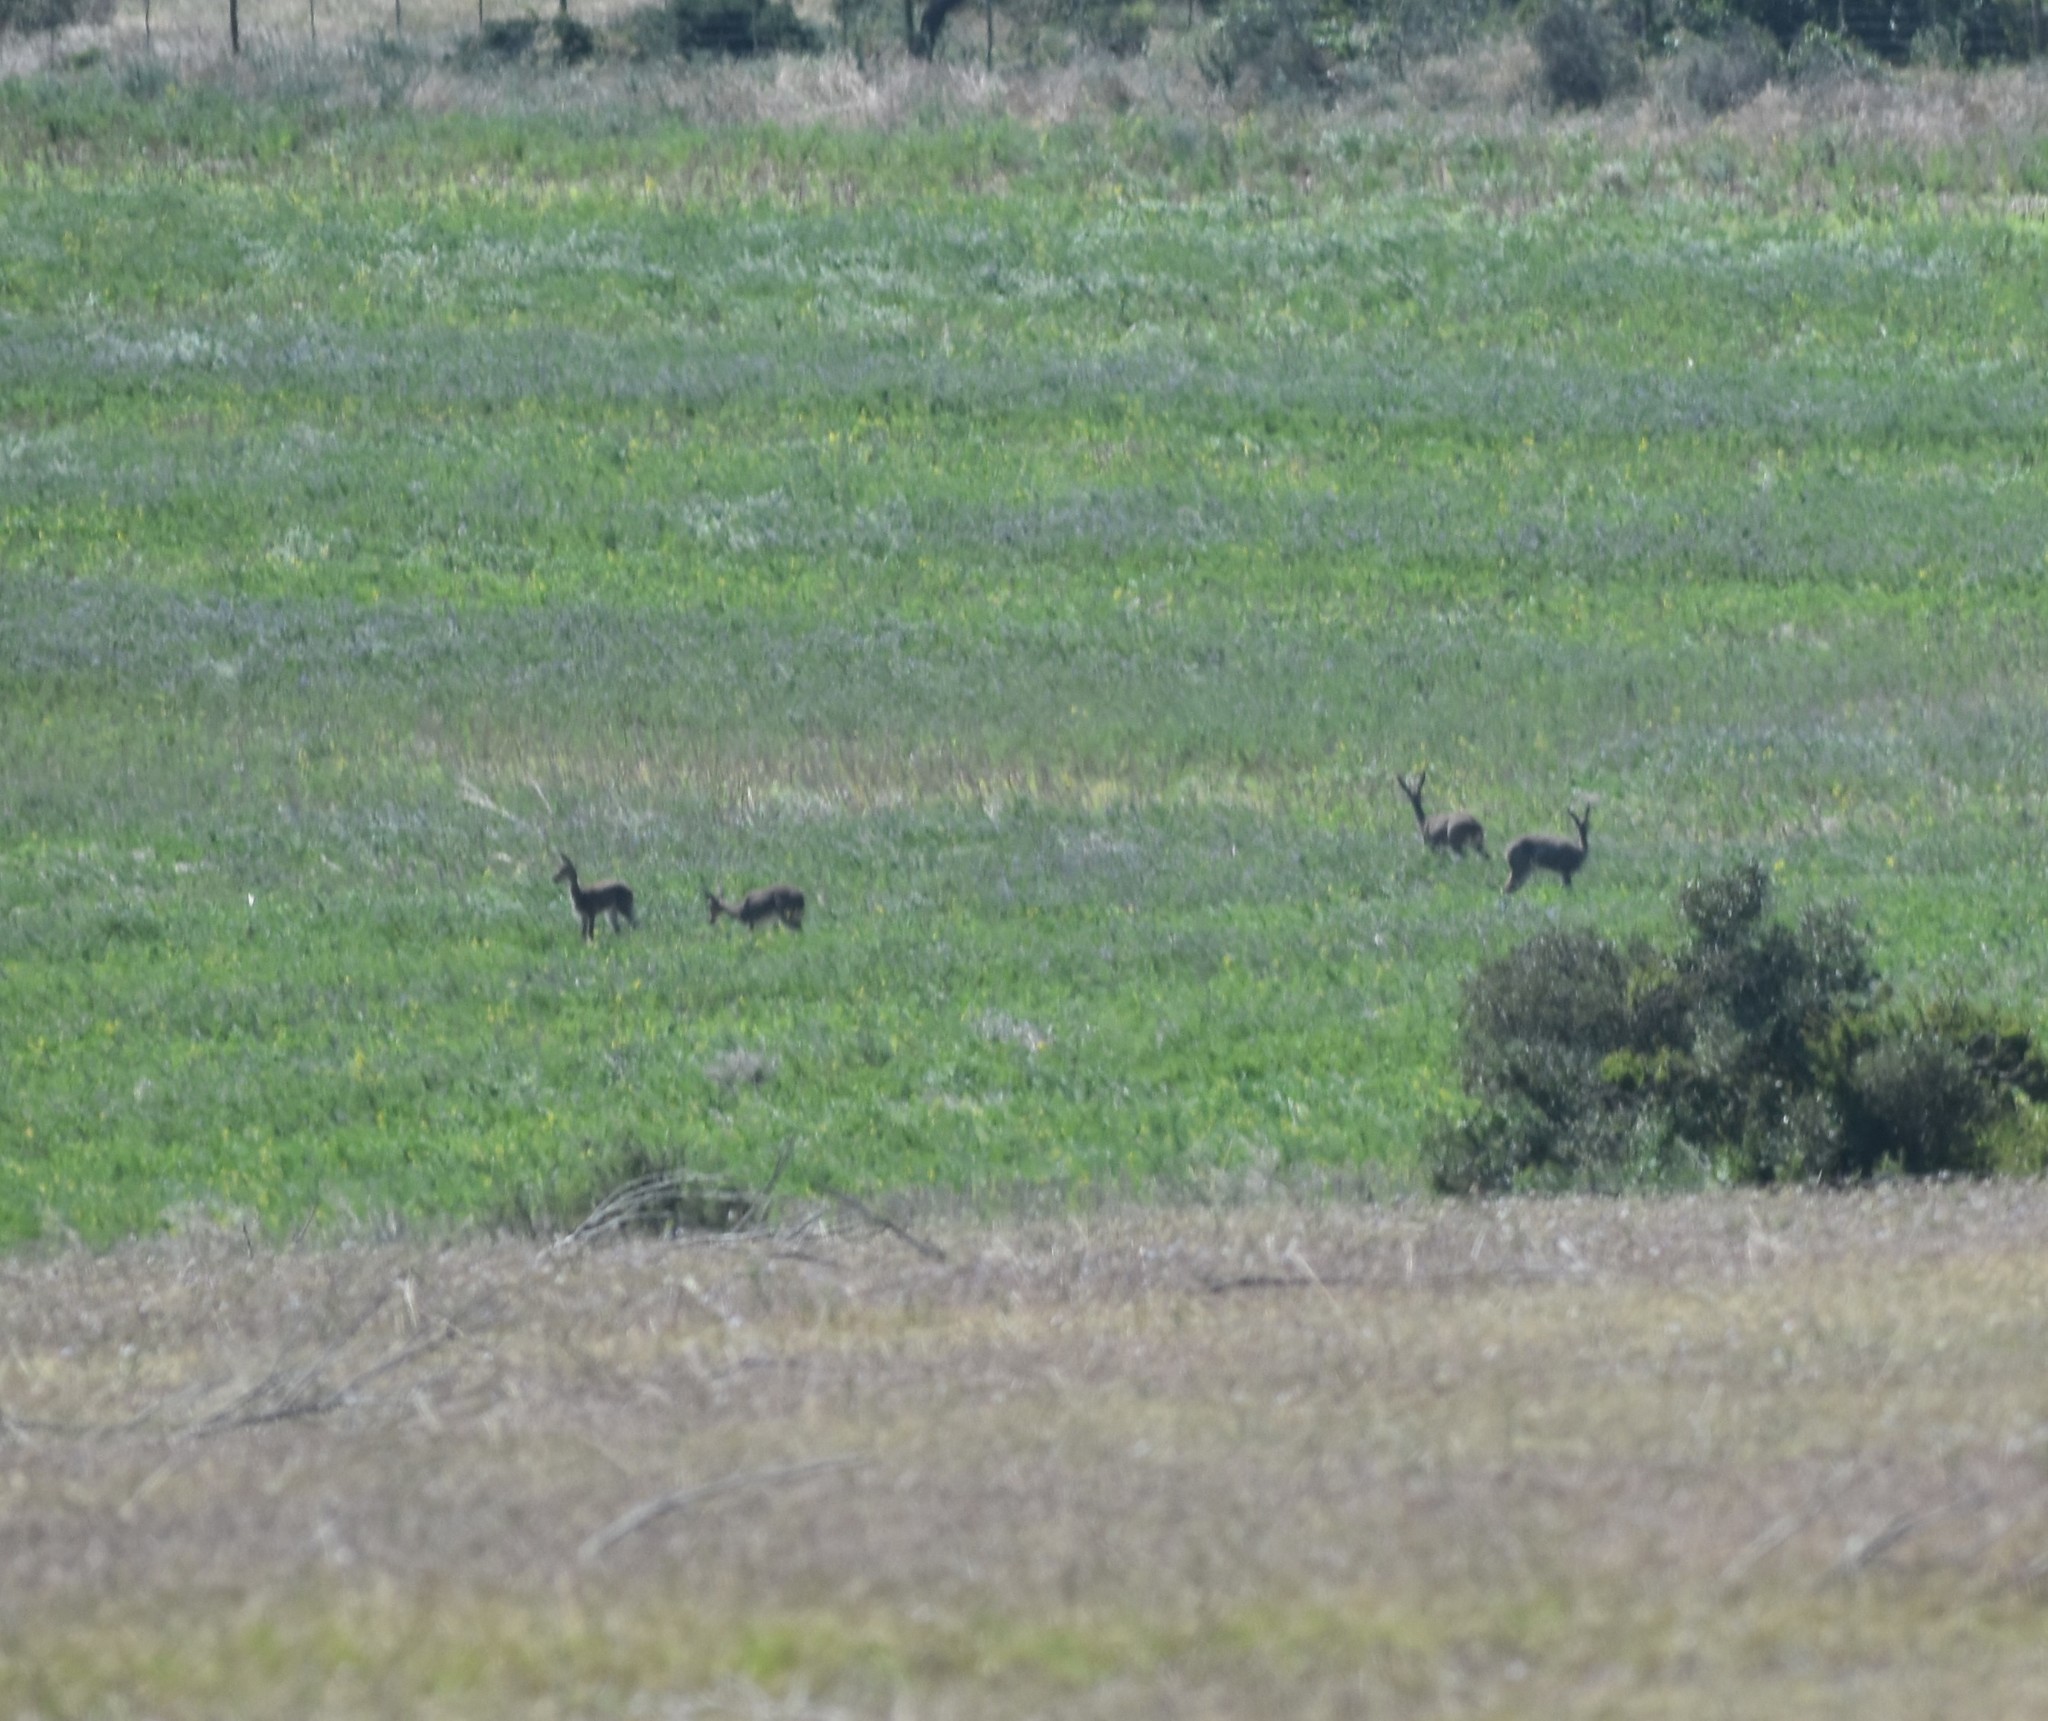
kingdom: Animalia
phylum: Chordata
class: Mammalia
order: Artiodactyla
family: Bovidae
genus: Pelea
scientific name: Pelea capreolus
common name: Common rhebok
